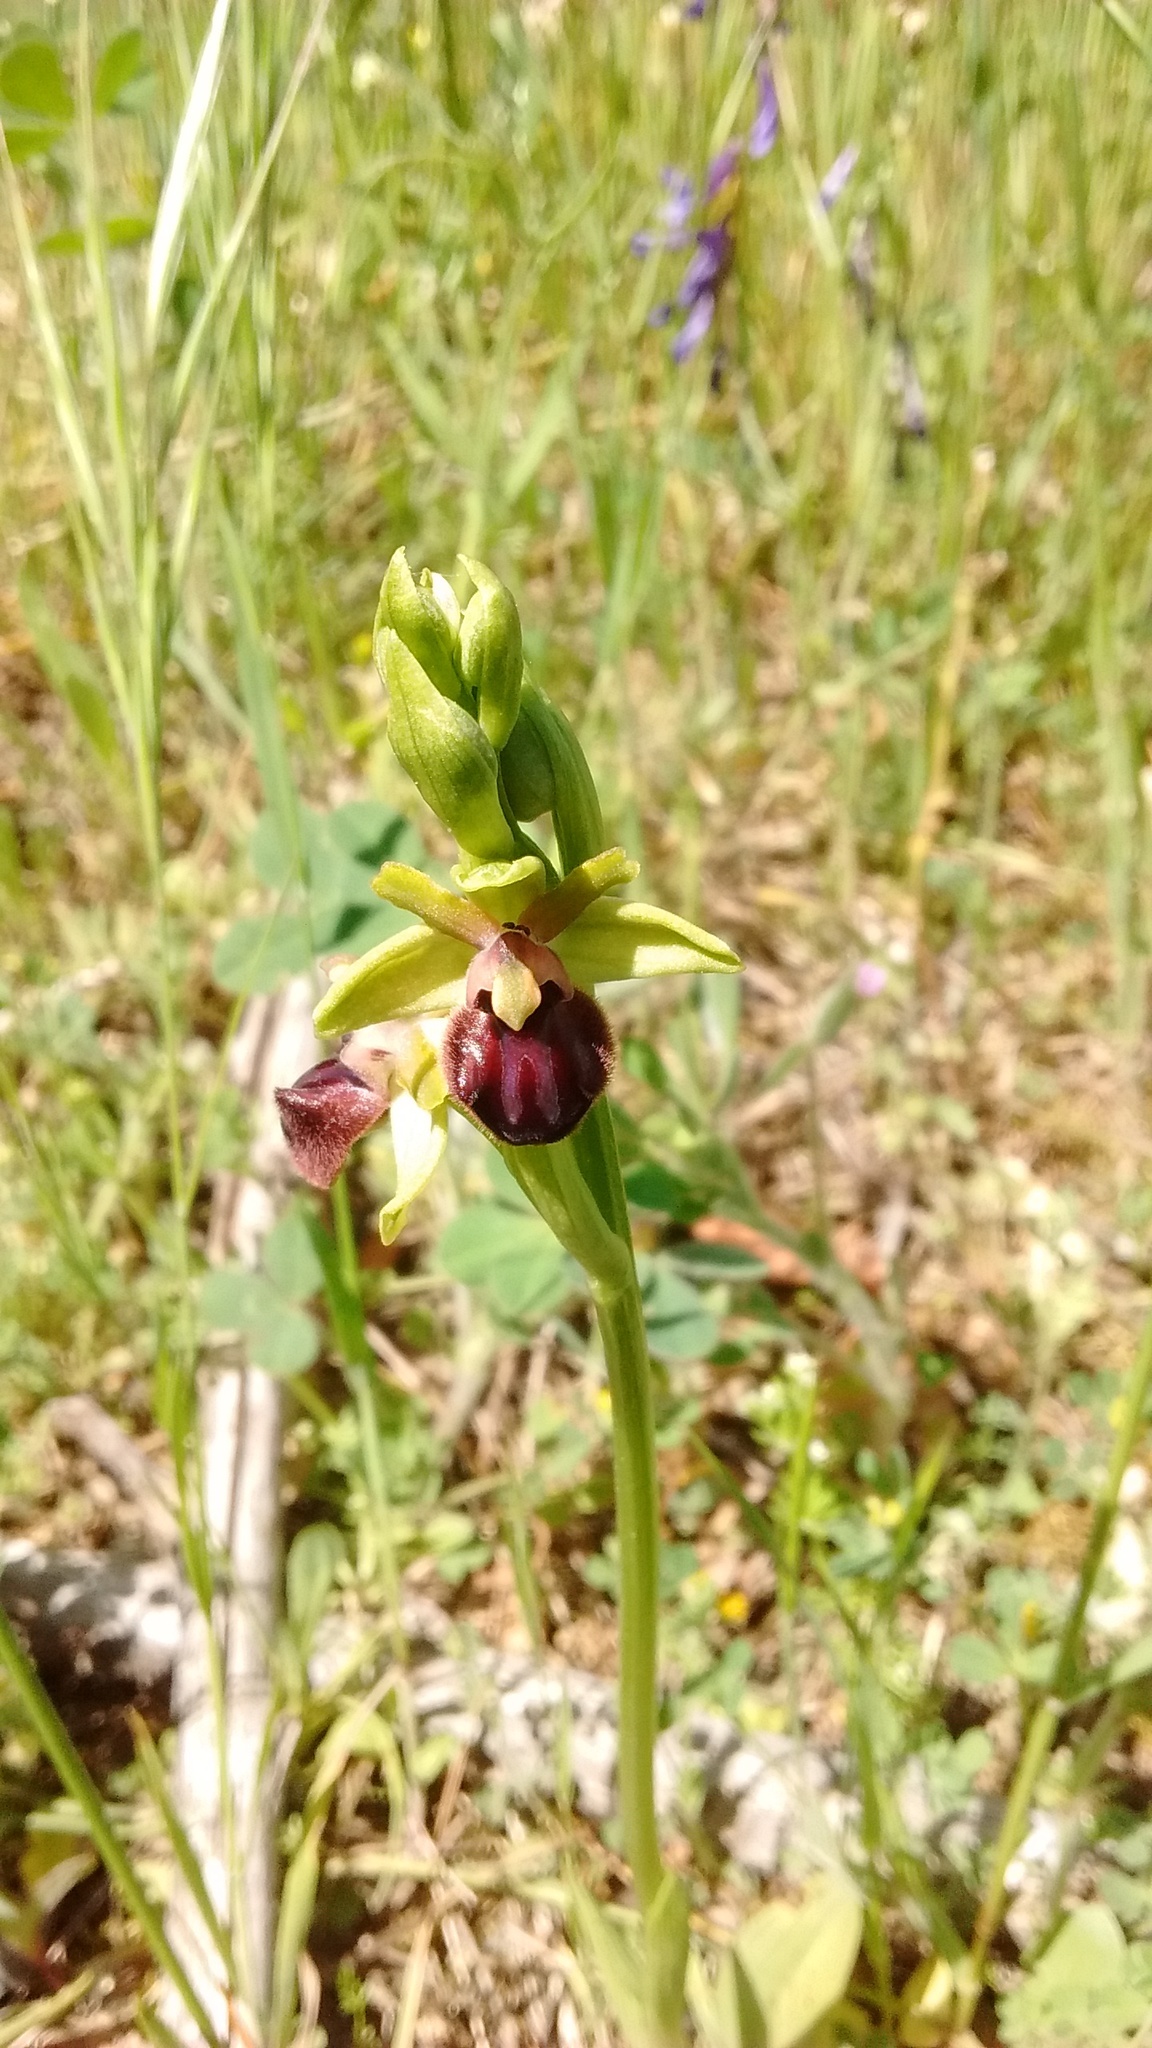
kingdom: Plantae
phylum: Tracheophyta
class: Liliopsida
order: Asparagales
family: Orchidaceae
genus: Ophrys
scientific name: Ophrys sphegodes
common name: Early spider-orchid
